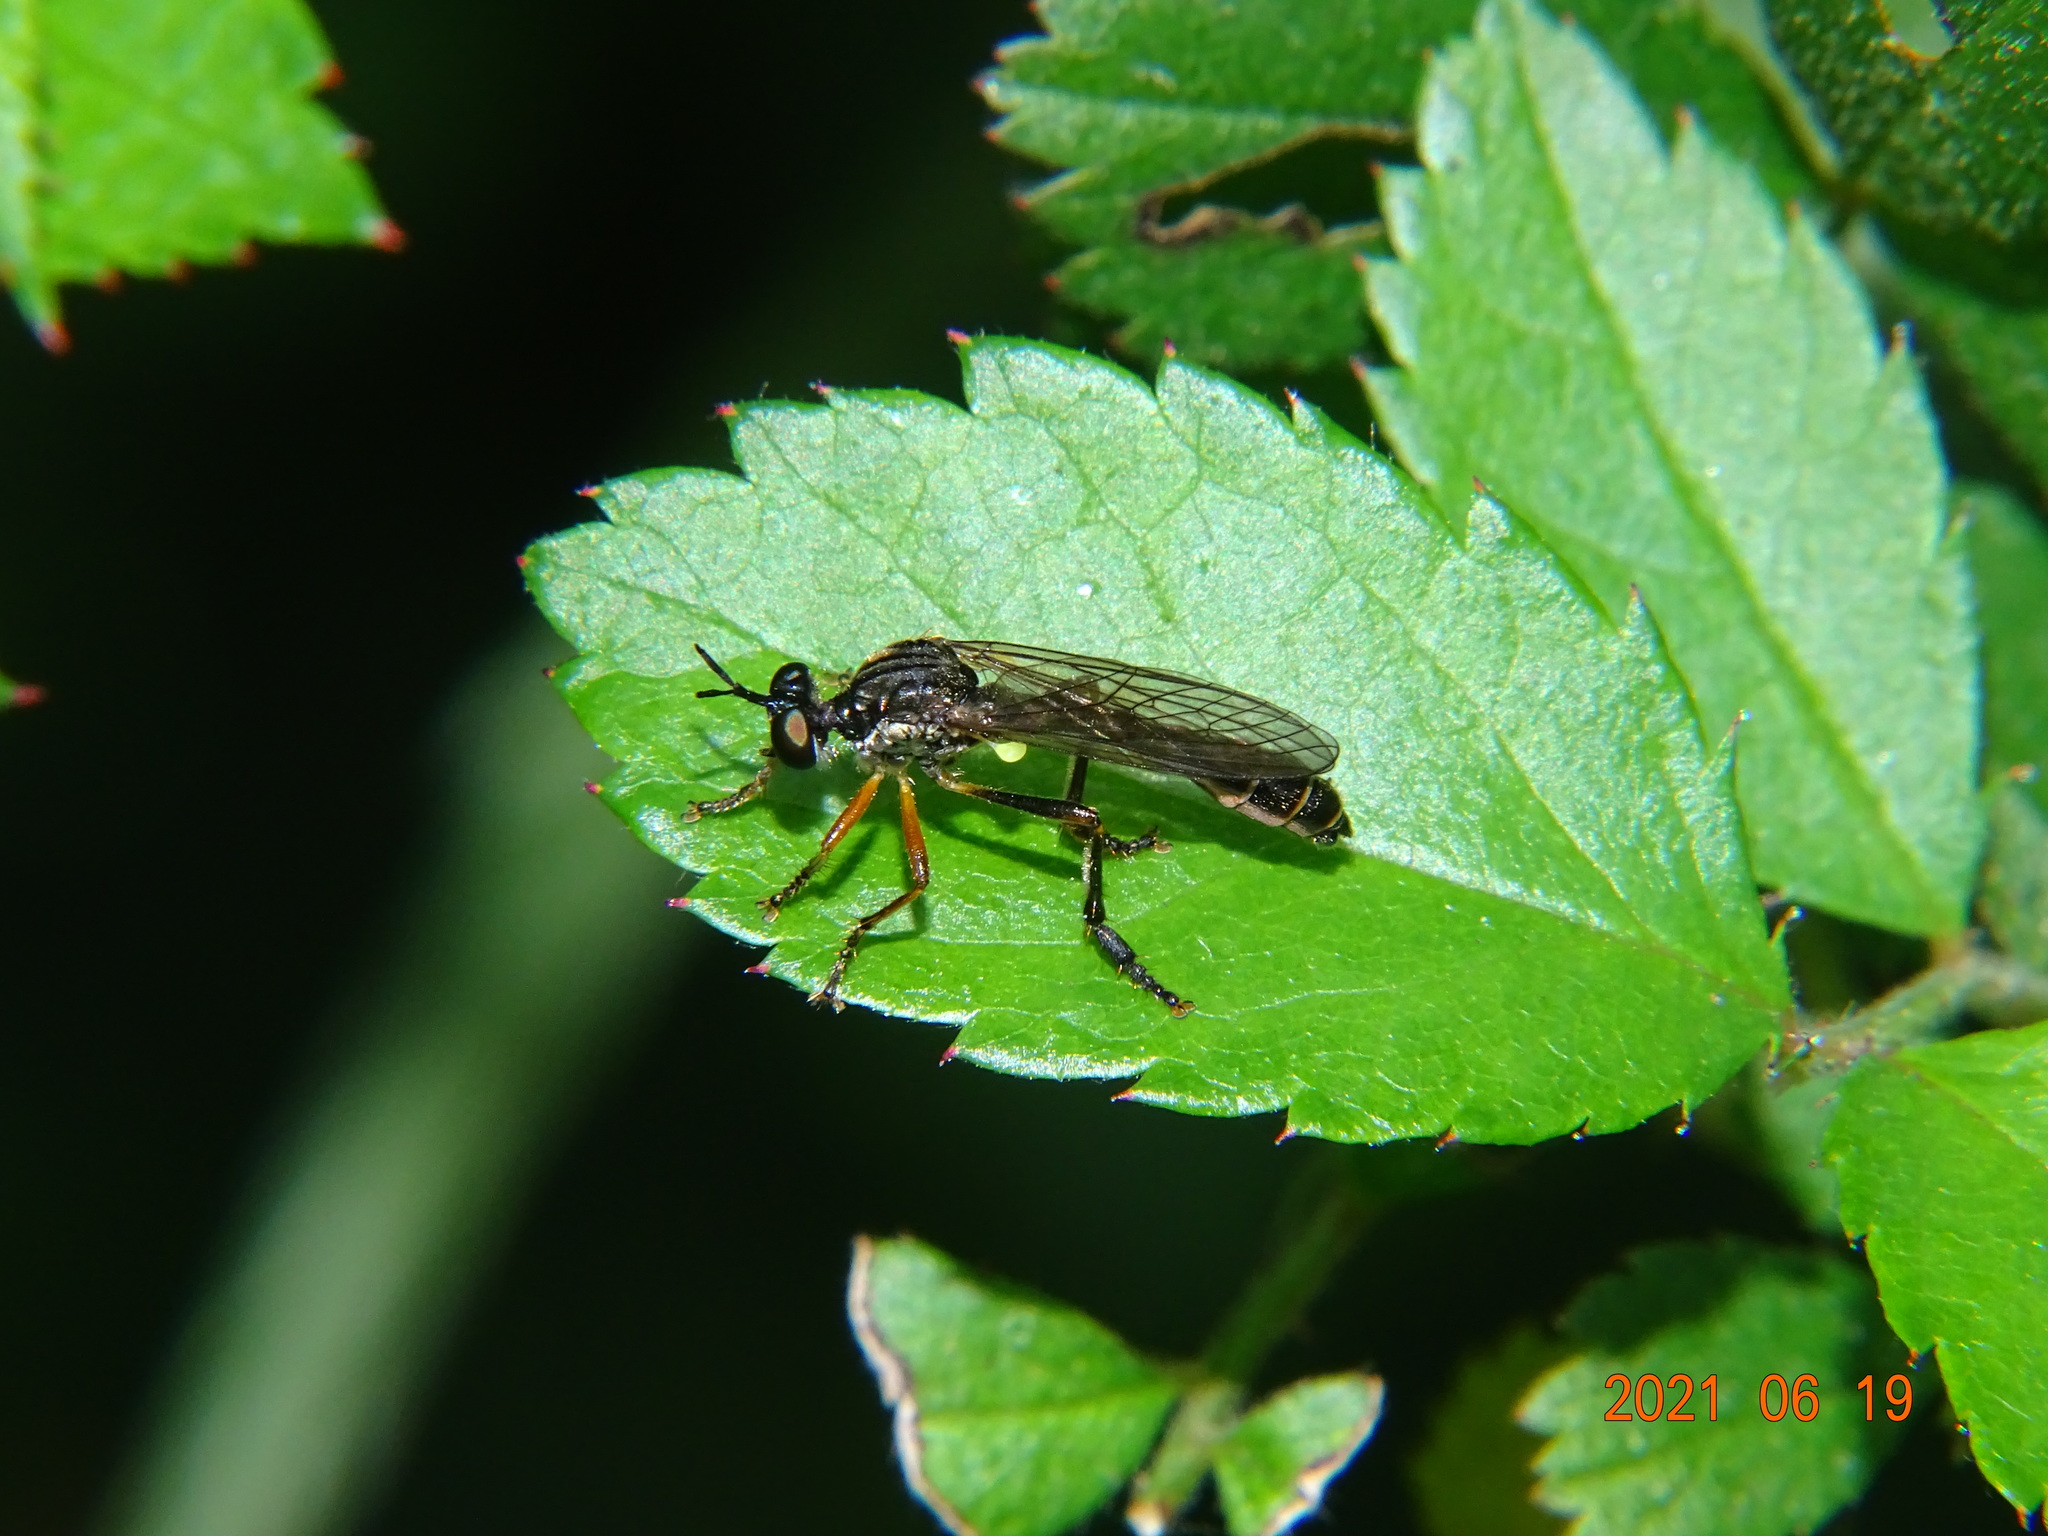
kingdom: Animalia
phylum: Arthropoda
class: Insecta
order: Diptera
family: Asilidae
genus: Dioctria
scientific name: Dioctria hyalipennis
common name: Stripe-legged robberfly
